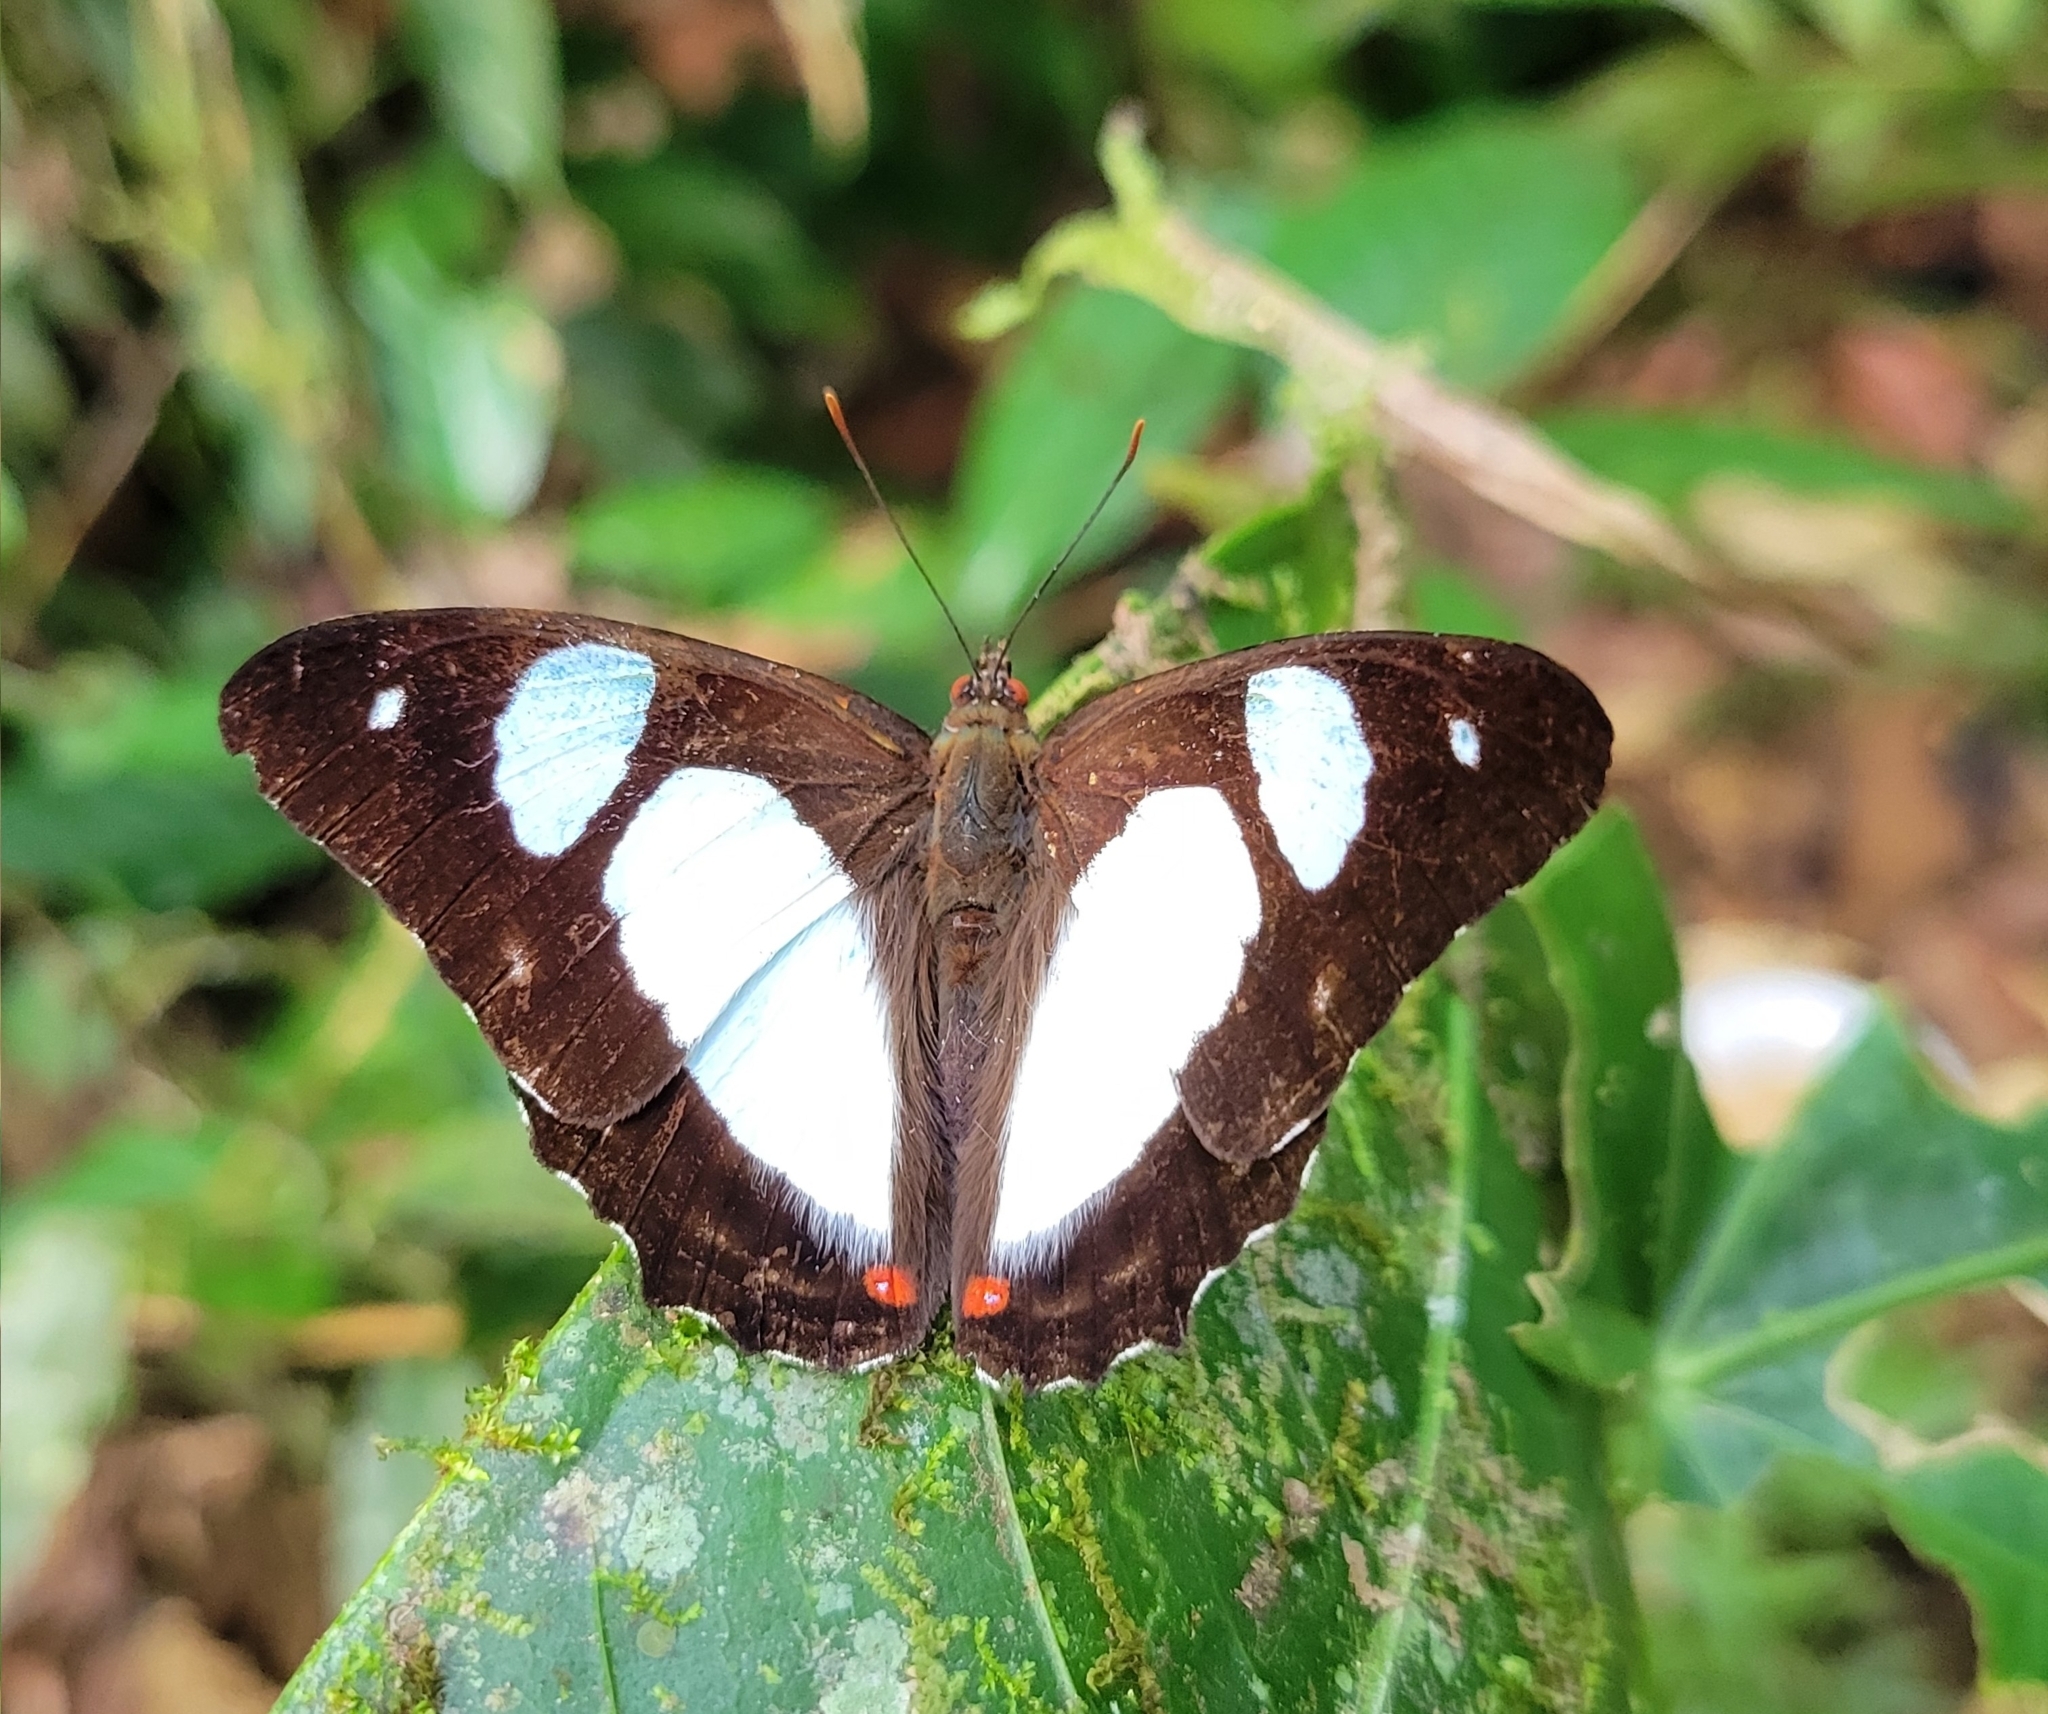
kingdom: Animalia
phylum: Arthropoda
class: Insecta
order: Lepidoptera
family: Nymphalidae
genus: Pyrrhogyra
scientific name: Pyrrhogyra otolais
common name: Double-banded banner
